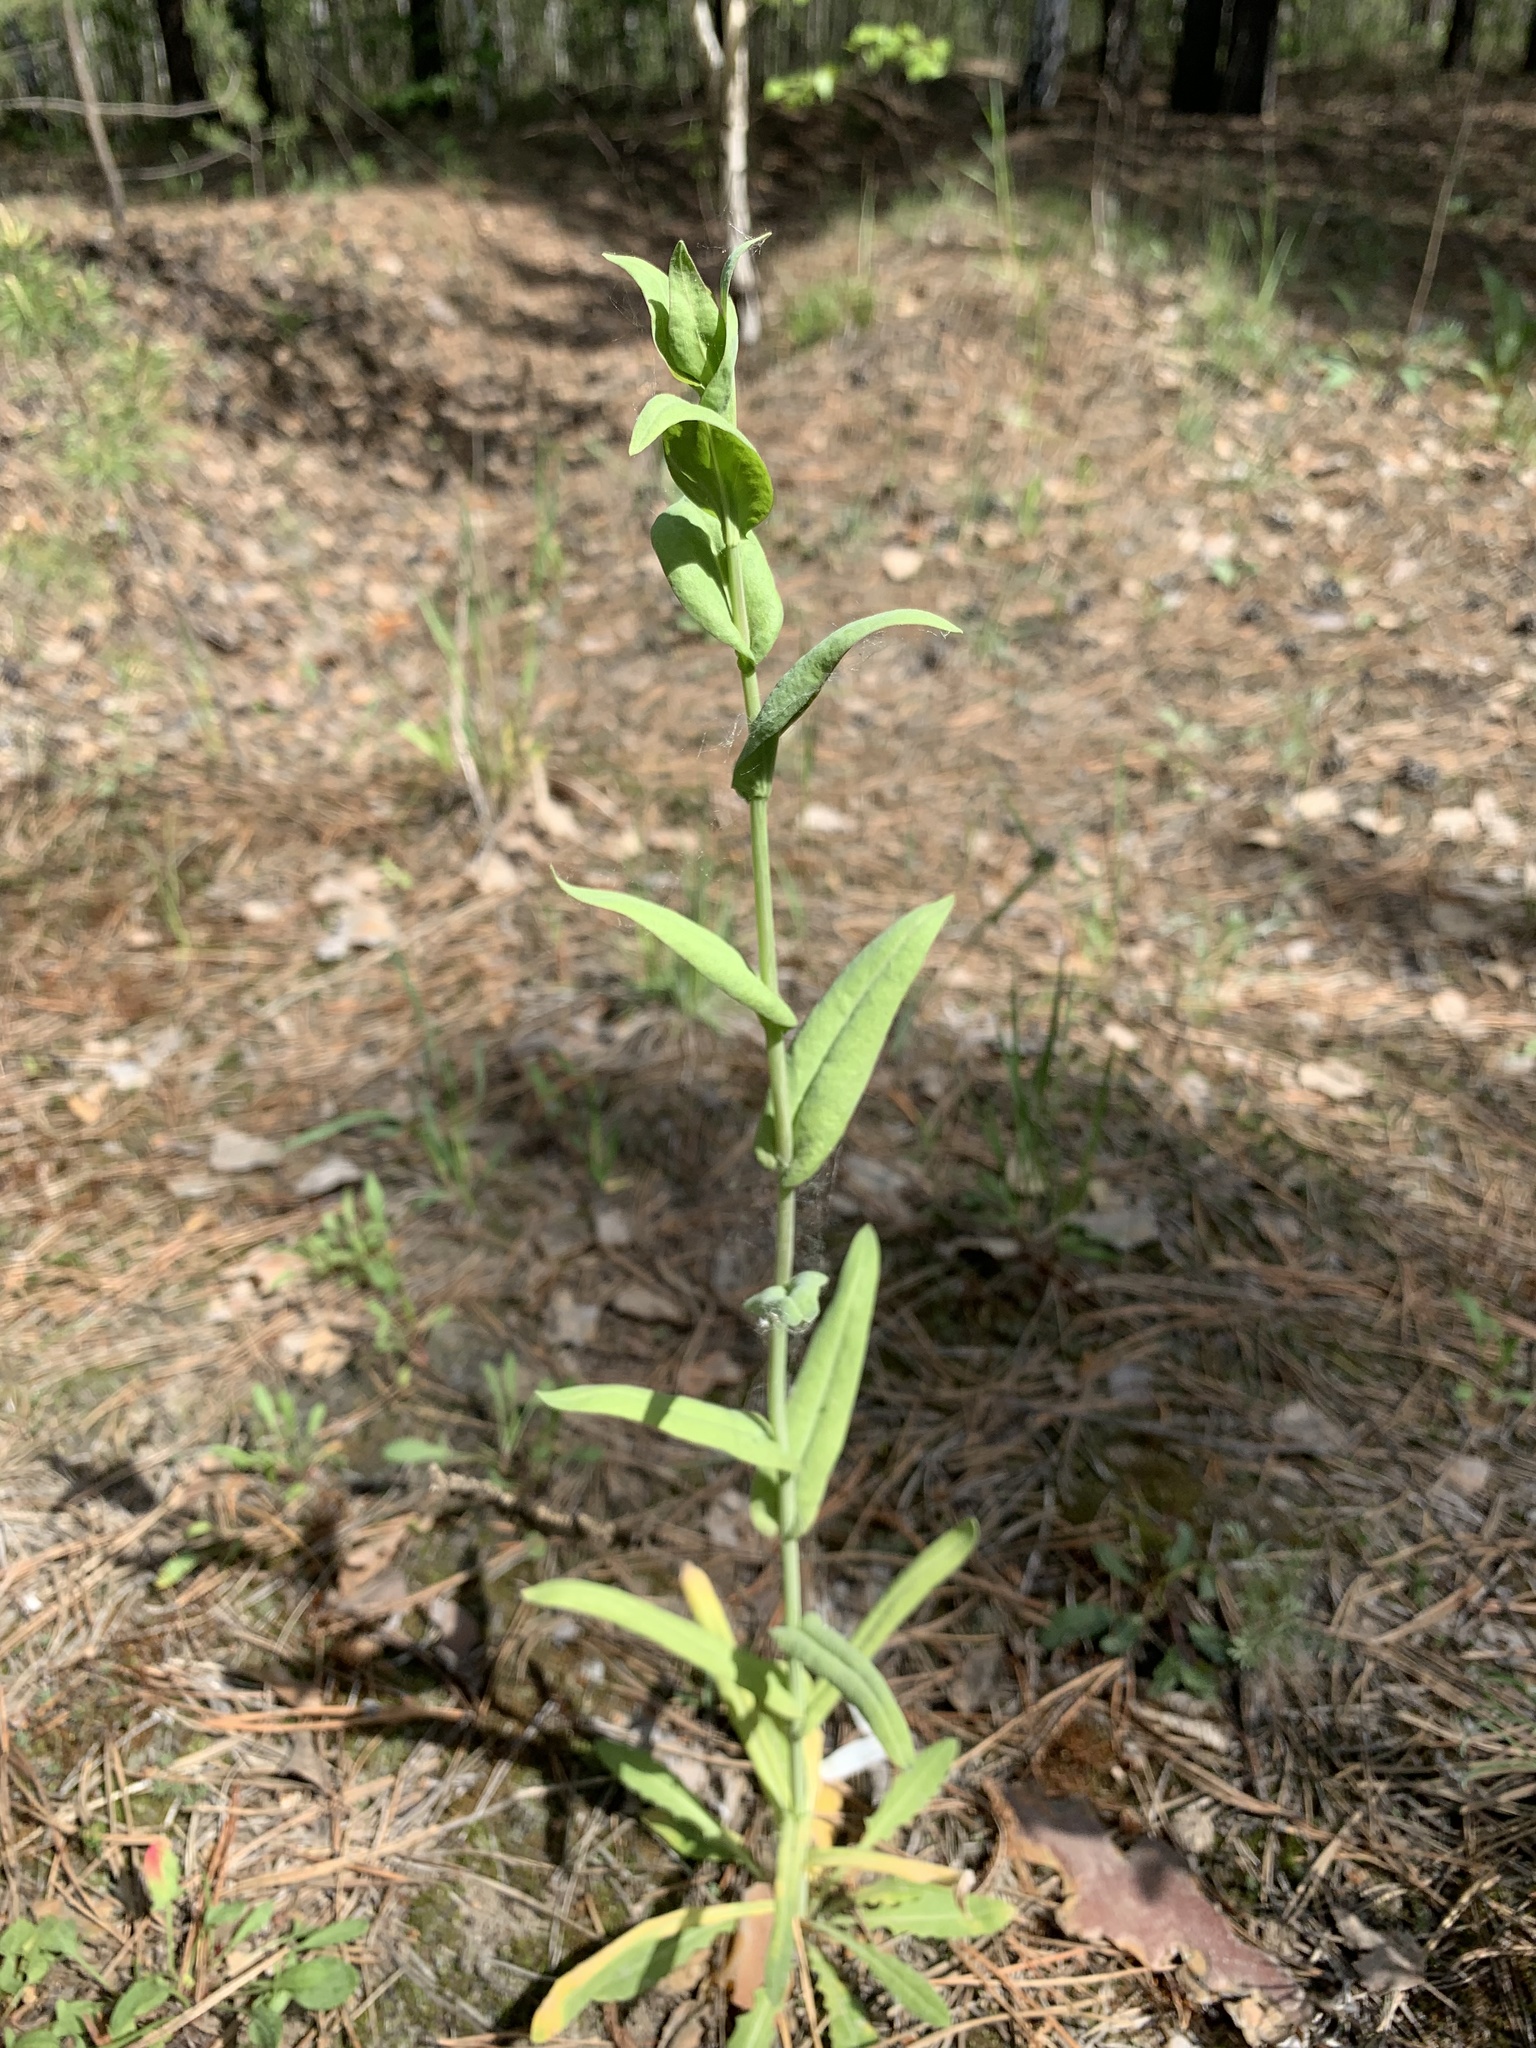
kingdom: Plantae
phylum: Tracheophyta
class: Magnoliopsida
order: Brassicales
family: Brassicaceae
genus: Turritis
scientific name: Turritis glabra
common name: Tower rockcress
